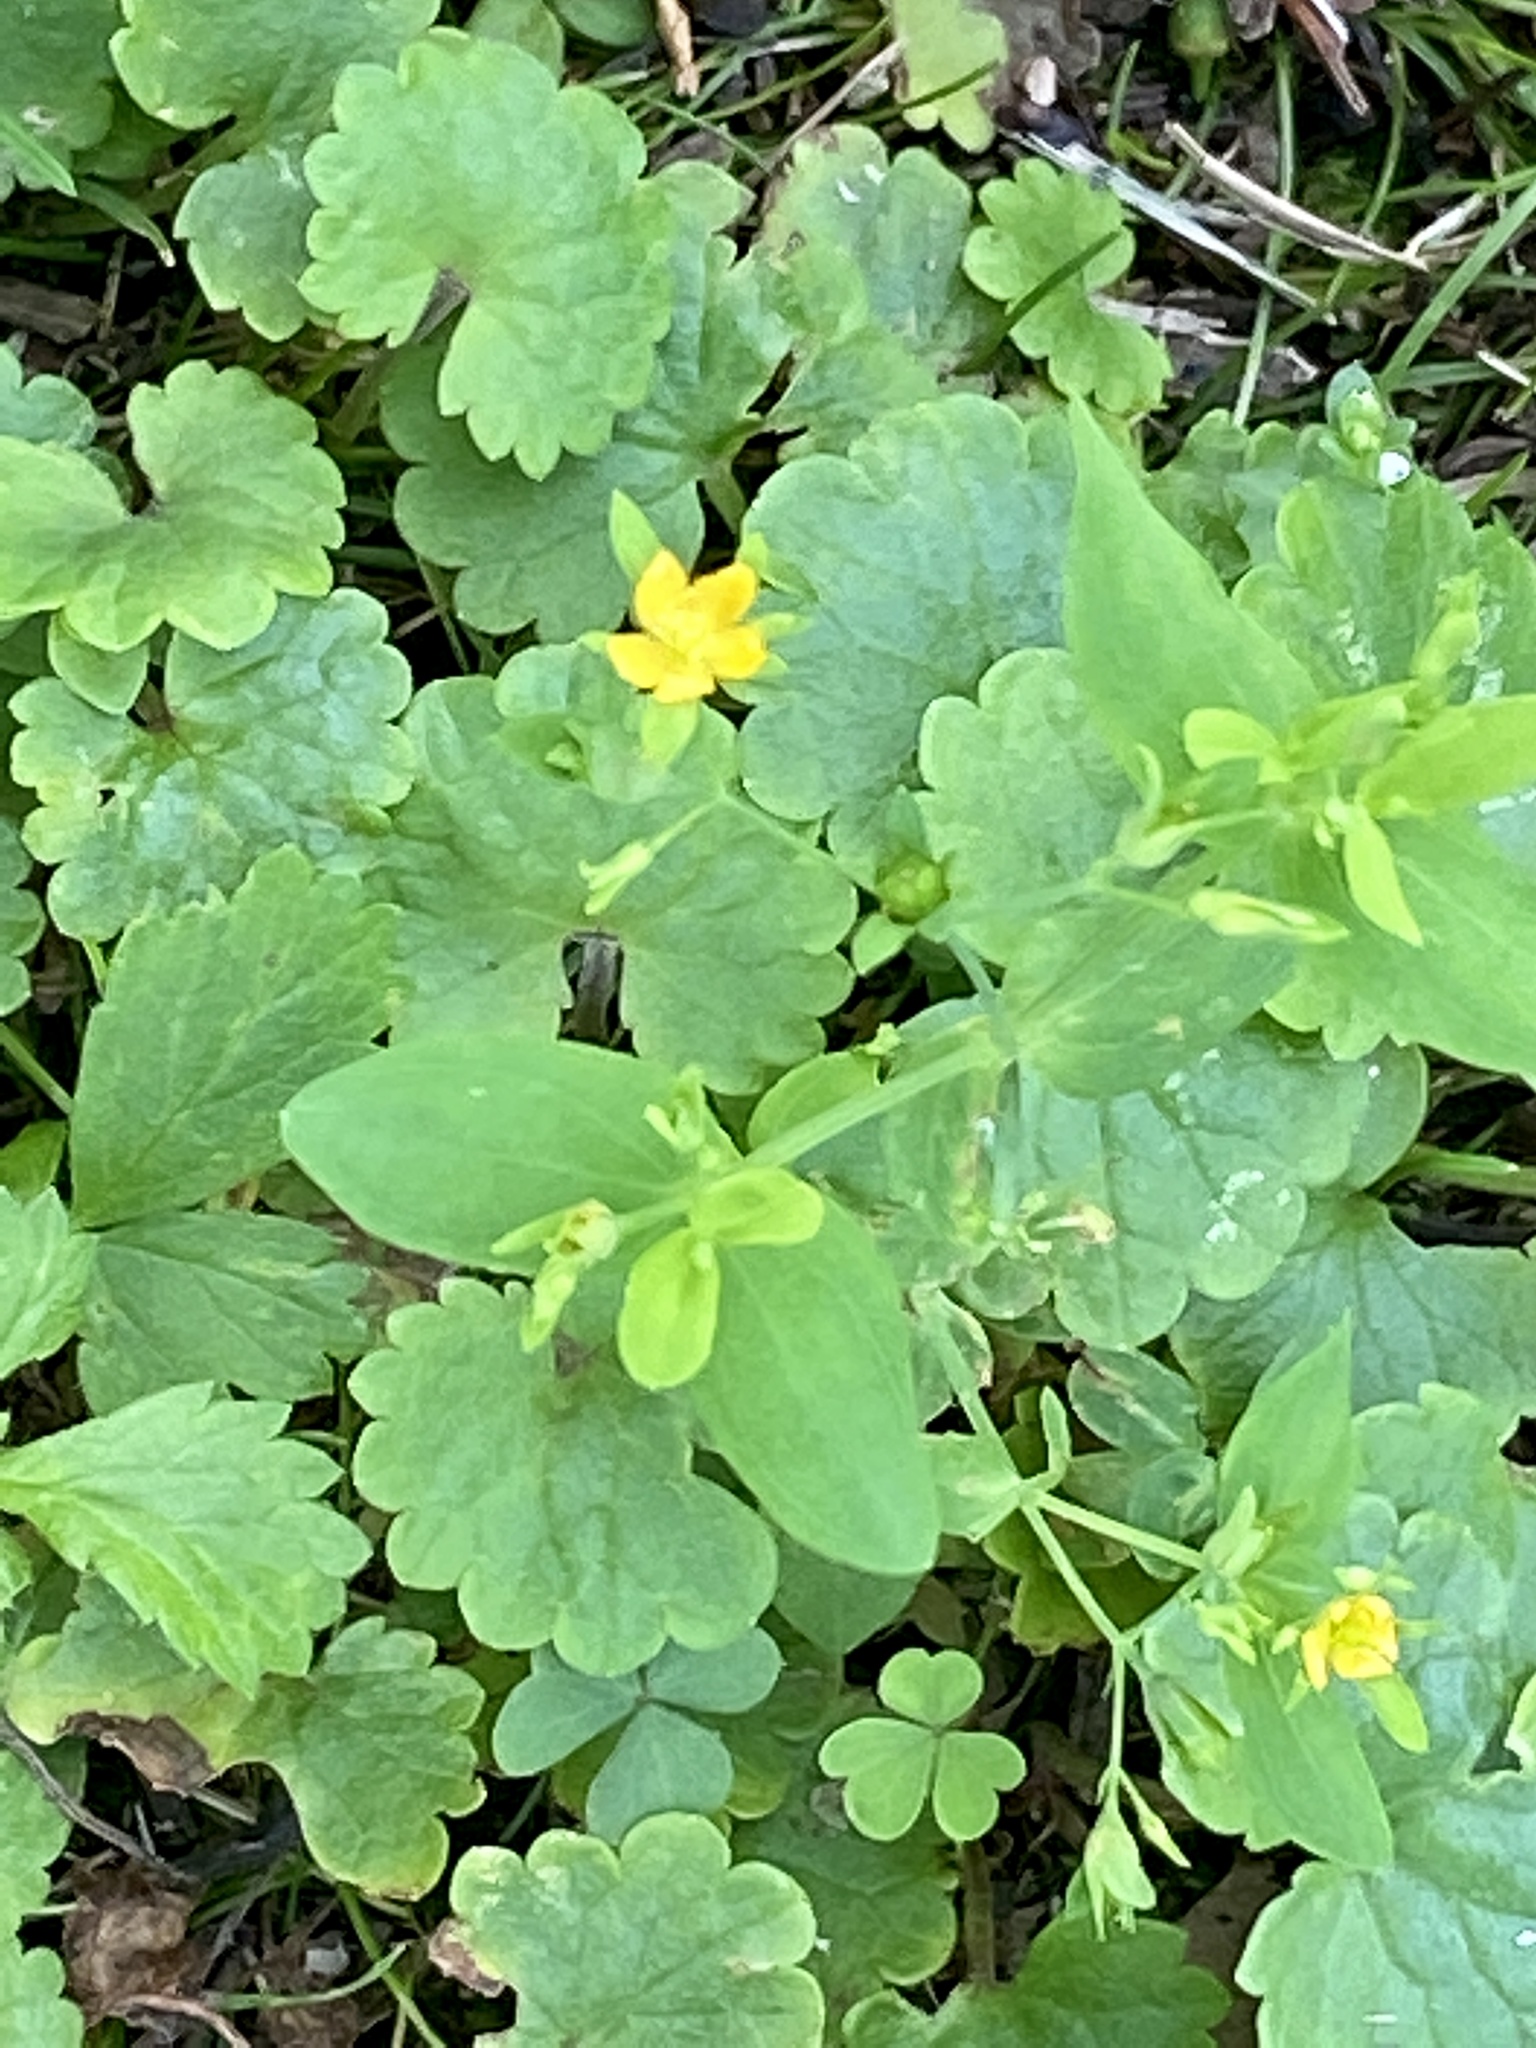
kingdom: Plantae
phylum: Tracheophyta
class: Magnoliopsida
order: Malpighiales
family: Hypericaceae
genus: Hypericum
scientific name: Hypericum mutilum
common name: Dwarf st. john's-wort
